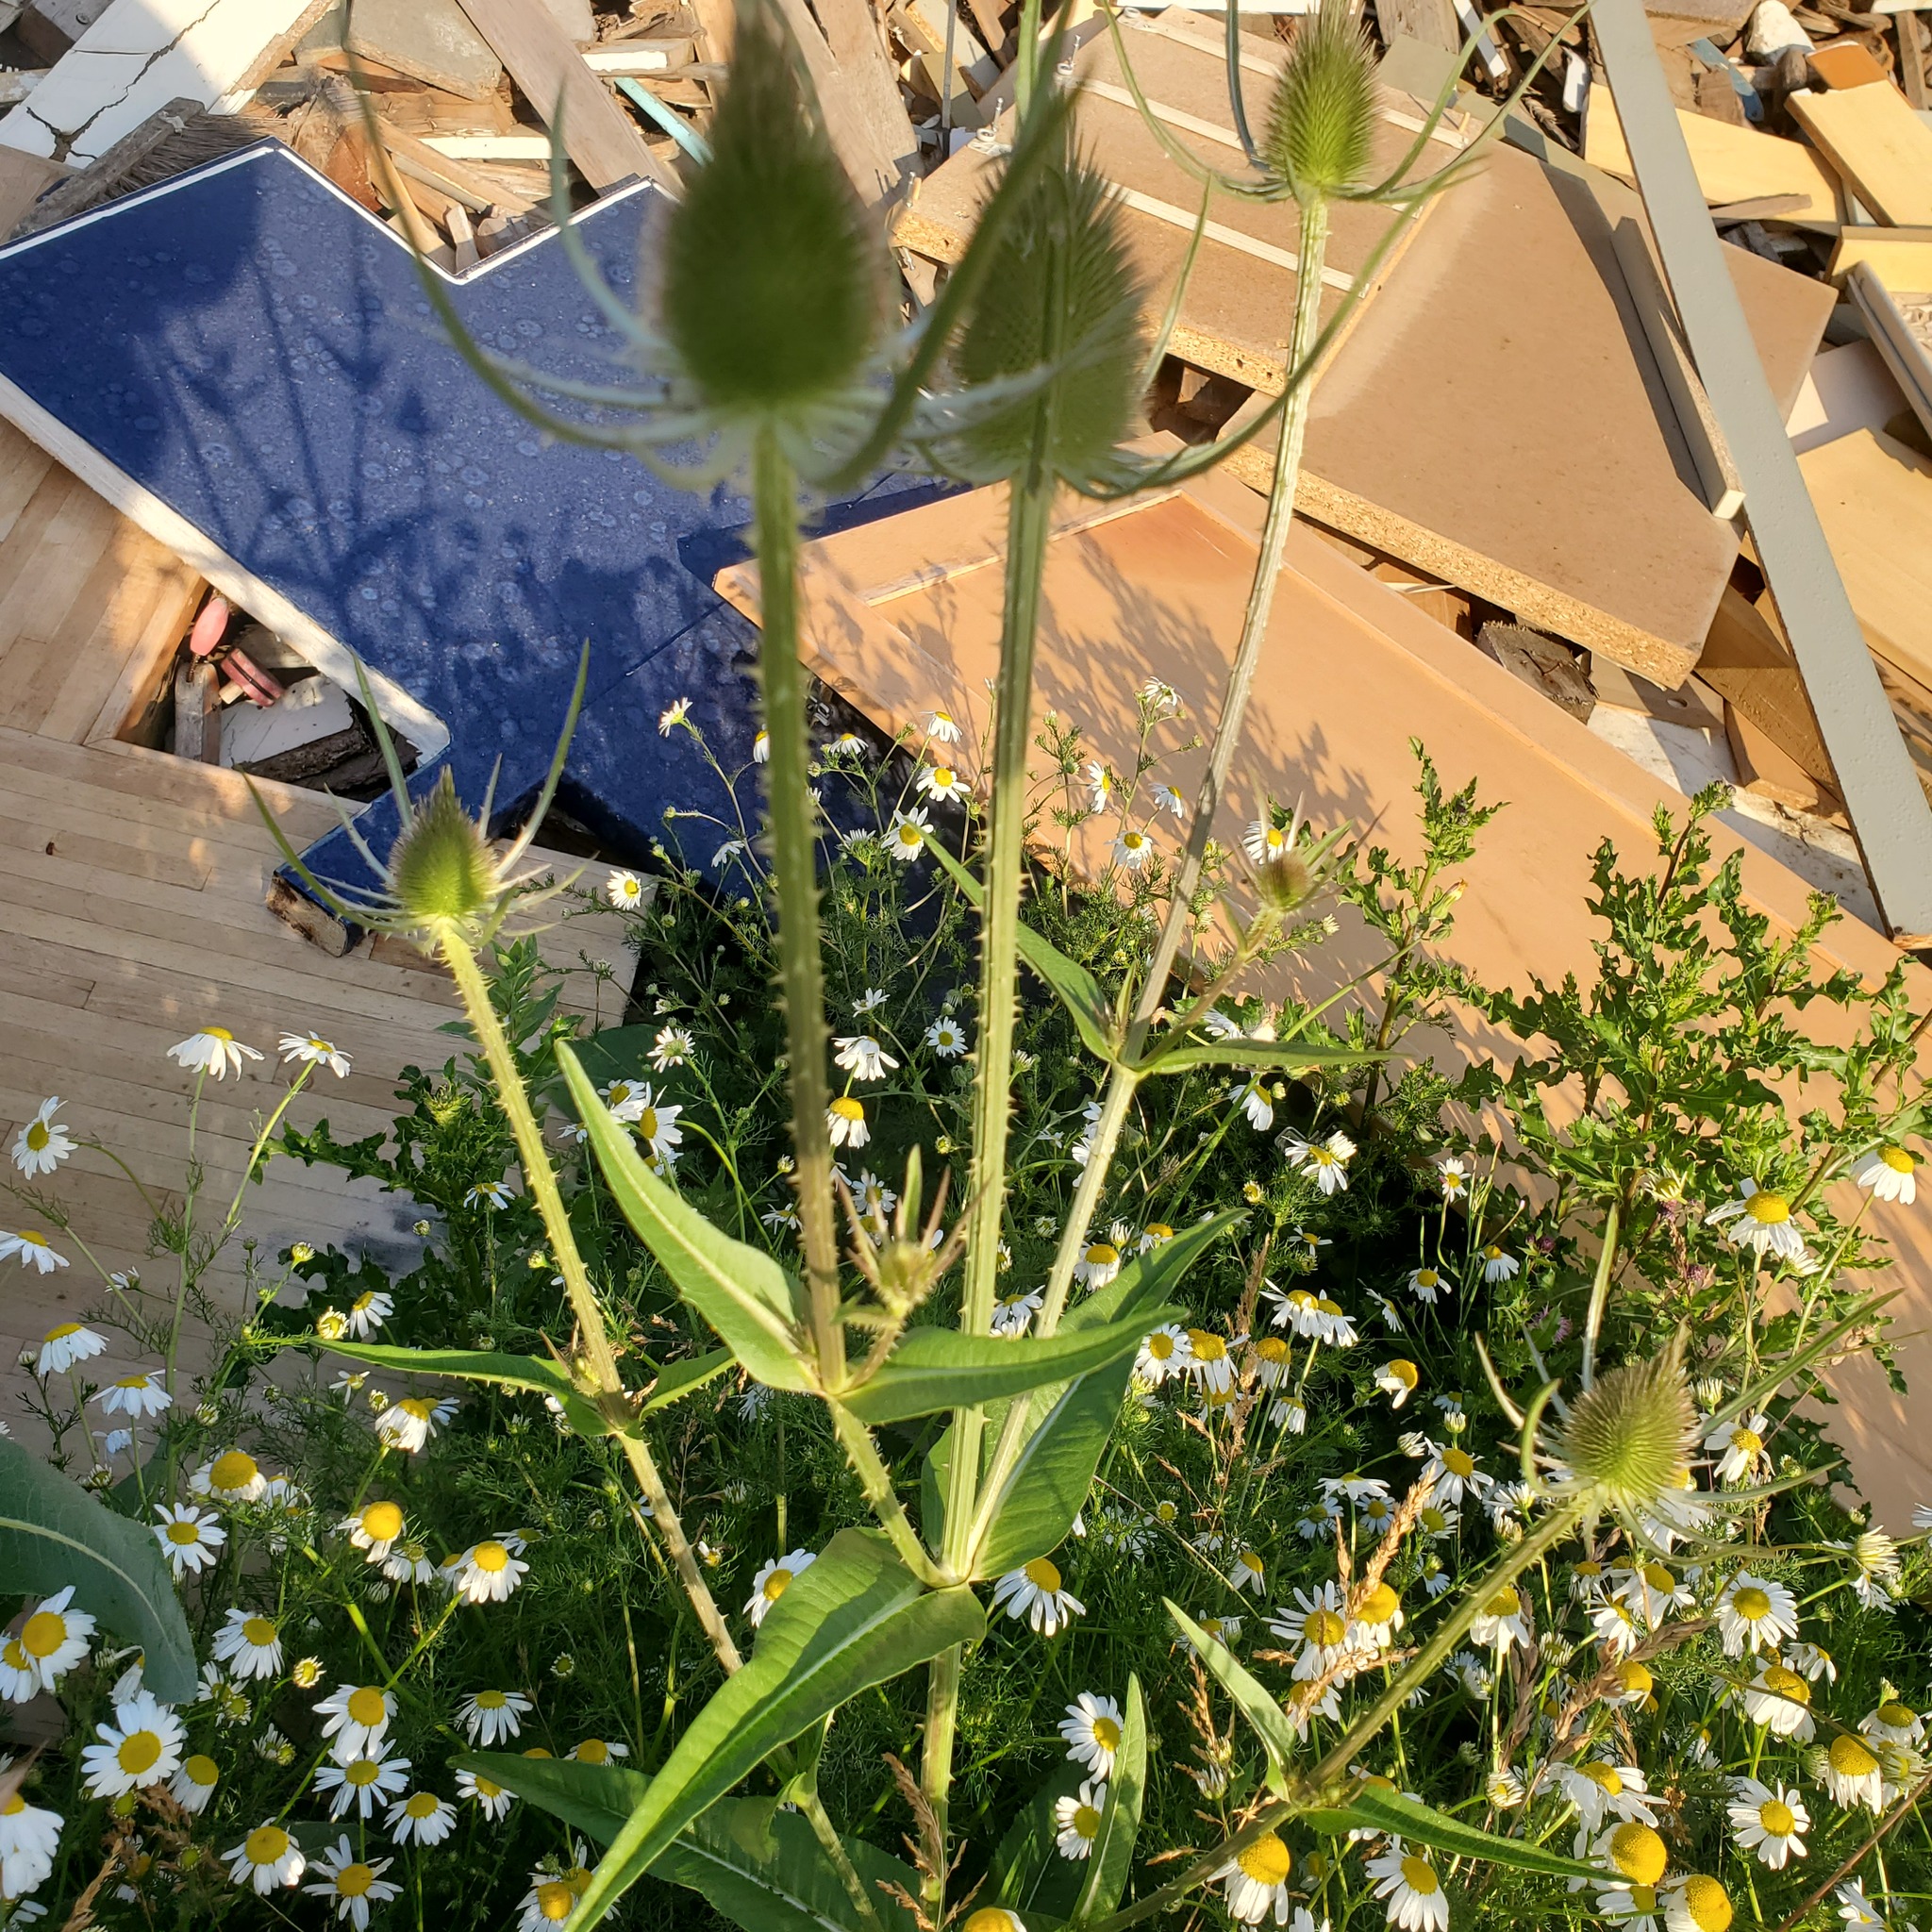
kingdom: Plantae
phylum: Tracheophyta
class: Magnoliopsida
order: Dipsacales
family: Caprifoliaceae
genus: Dipsacus
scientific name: Dipsacus fullonum
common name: Teasel
